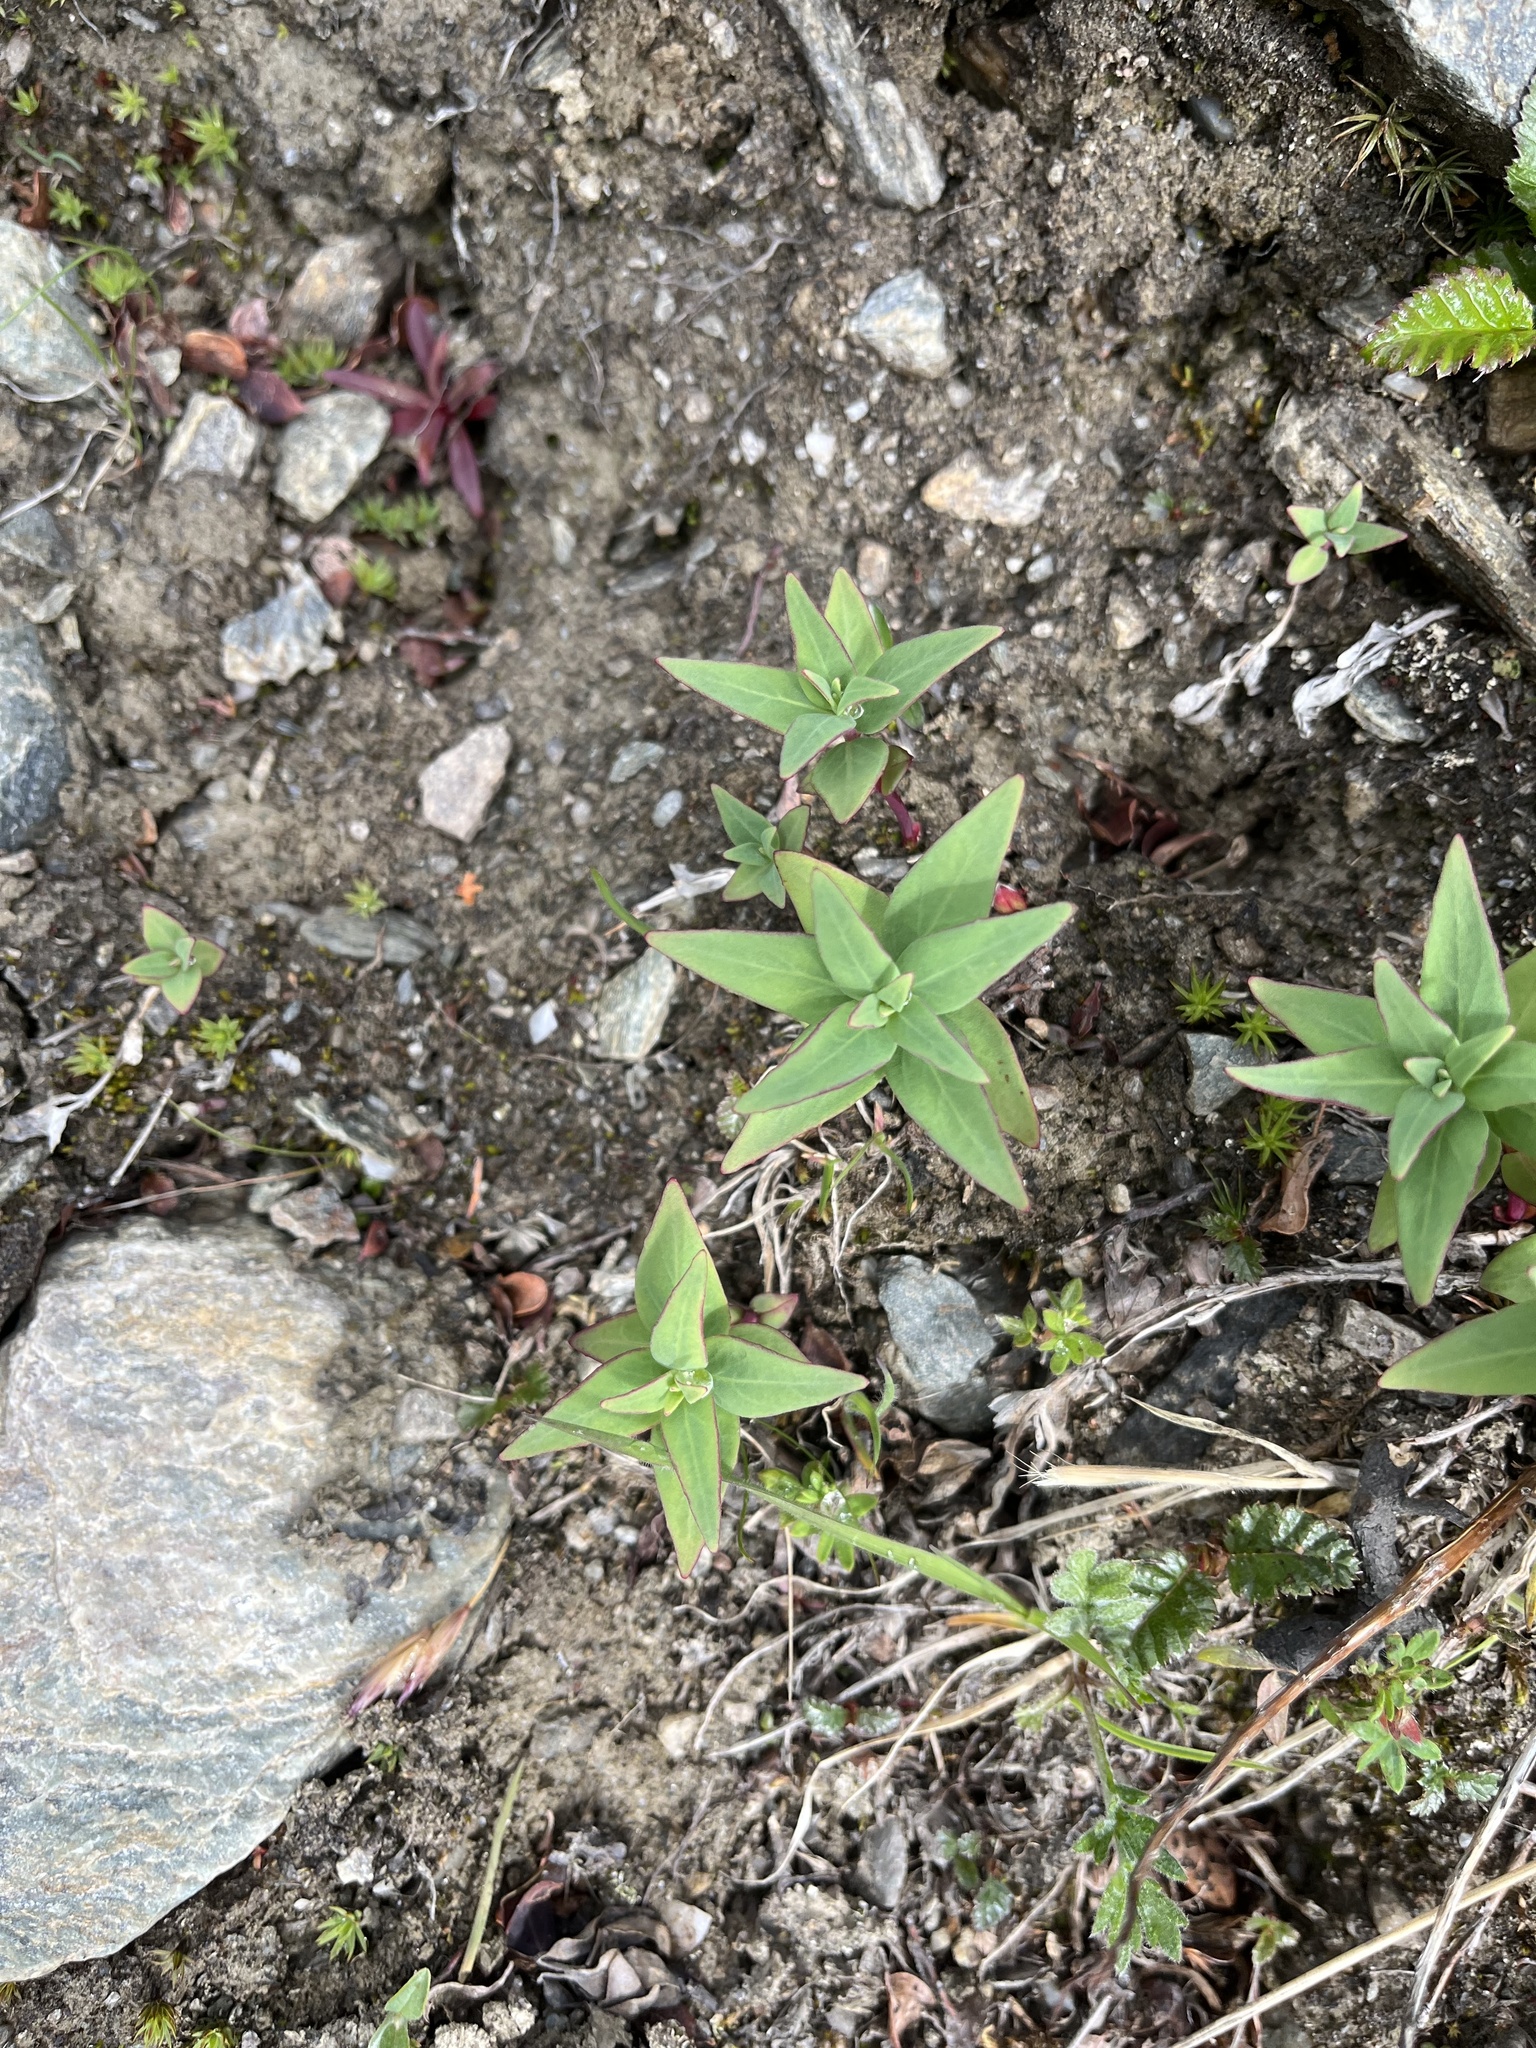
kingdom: Plantae
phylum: Tracheophyta
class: Magnoliopsida
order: Myrtales
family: Onagraceae
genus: Chamaenerion
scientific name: Chamaenerion latifolium
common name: Dwarf fireweed
